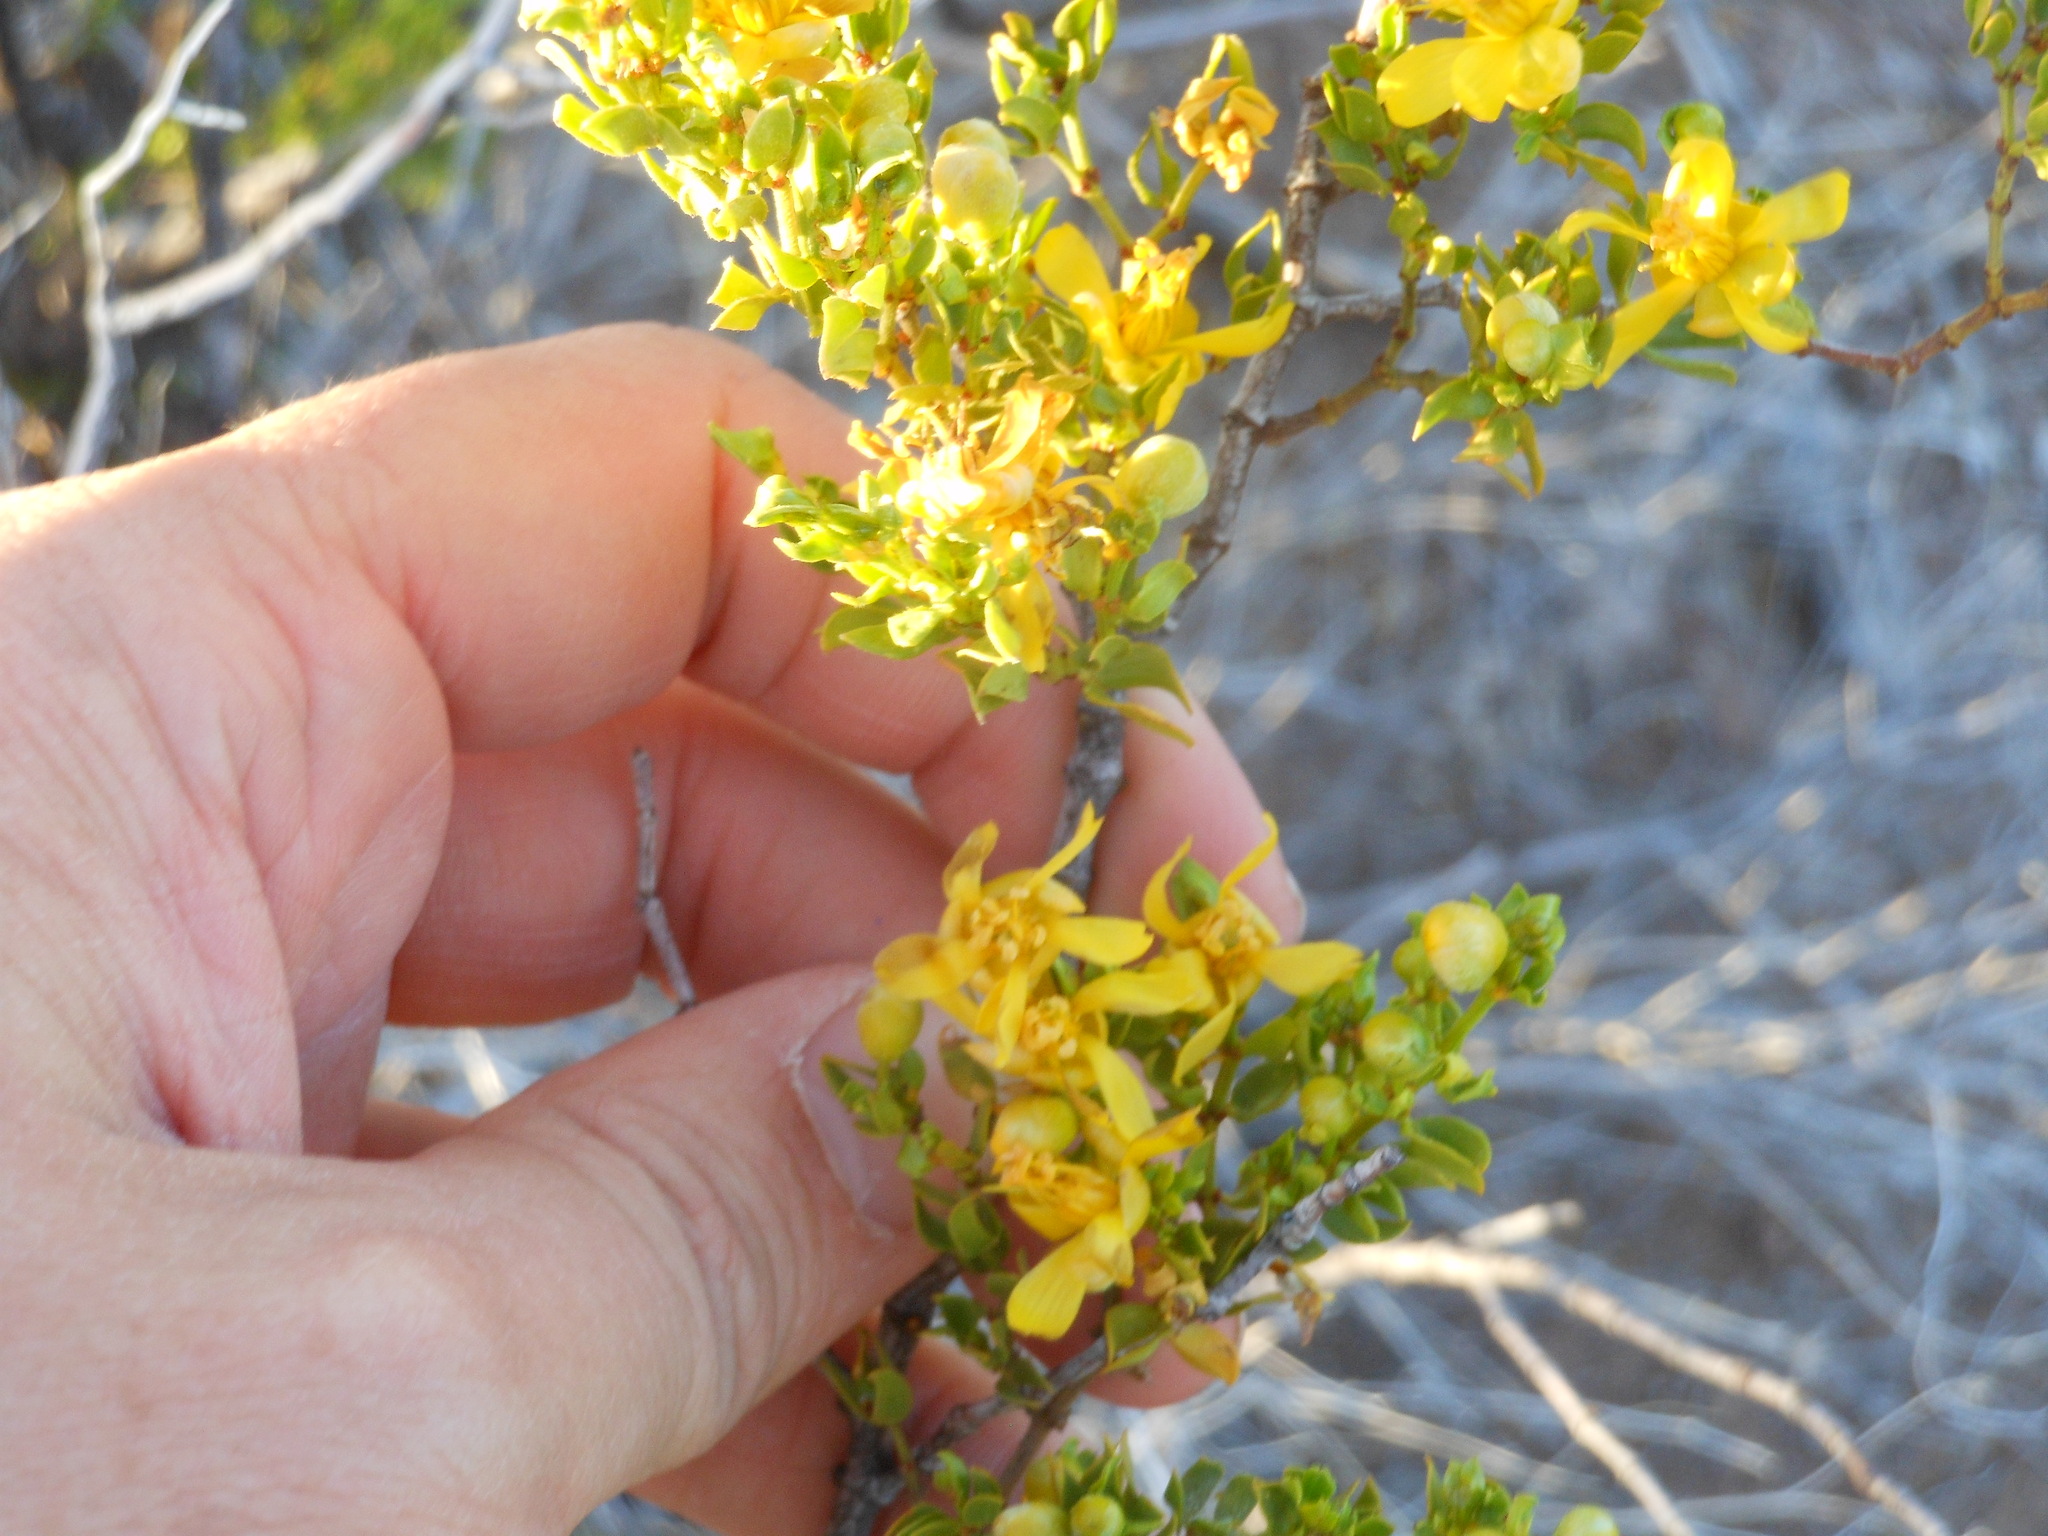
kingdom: Plantae
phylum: Tracheophyta
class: Magnoliopsida
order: Zygophyllales
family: Zygophyllaceae
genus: Larrea
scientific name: Larrea tridentata
